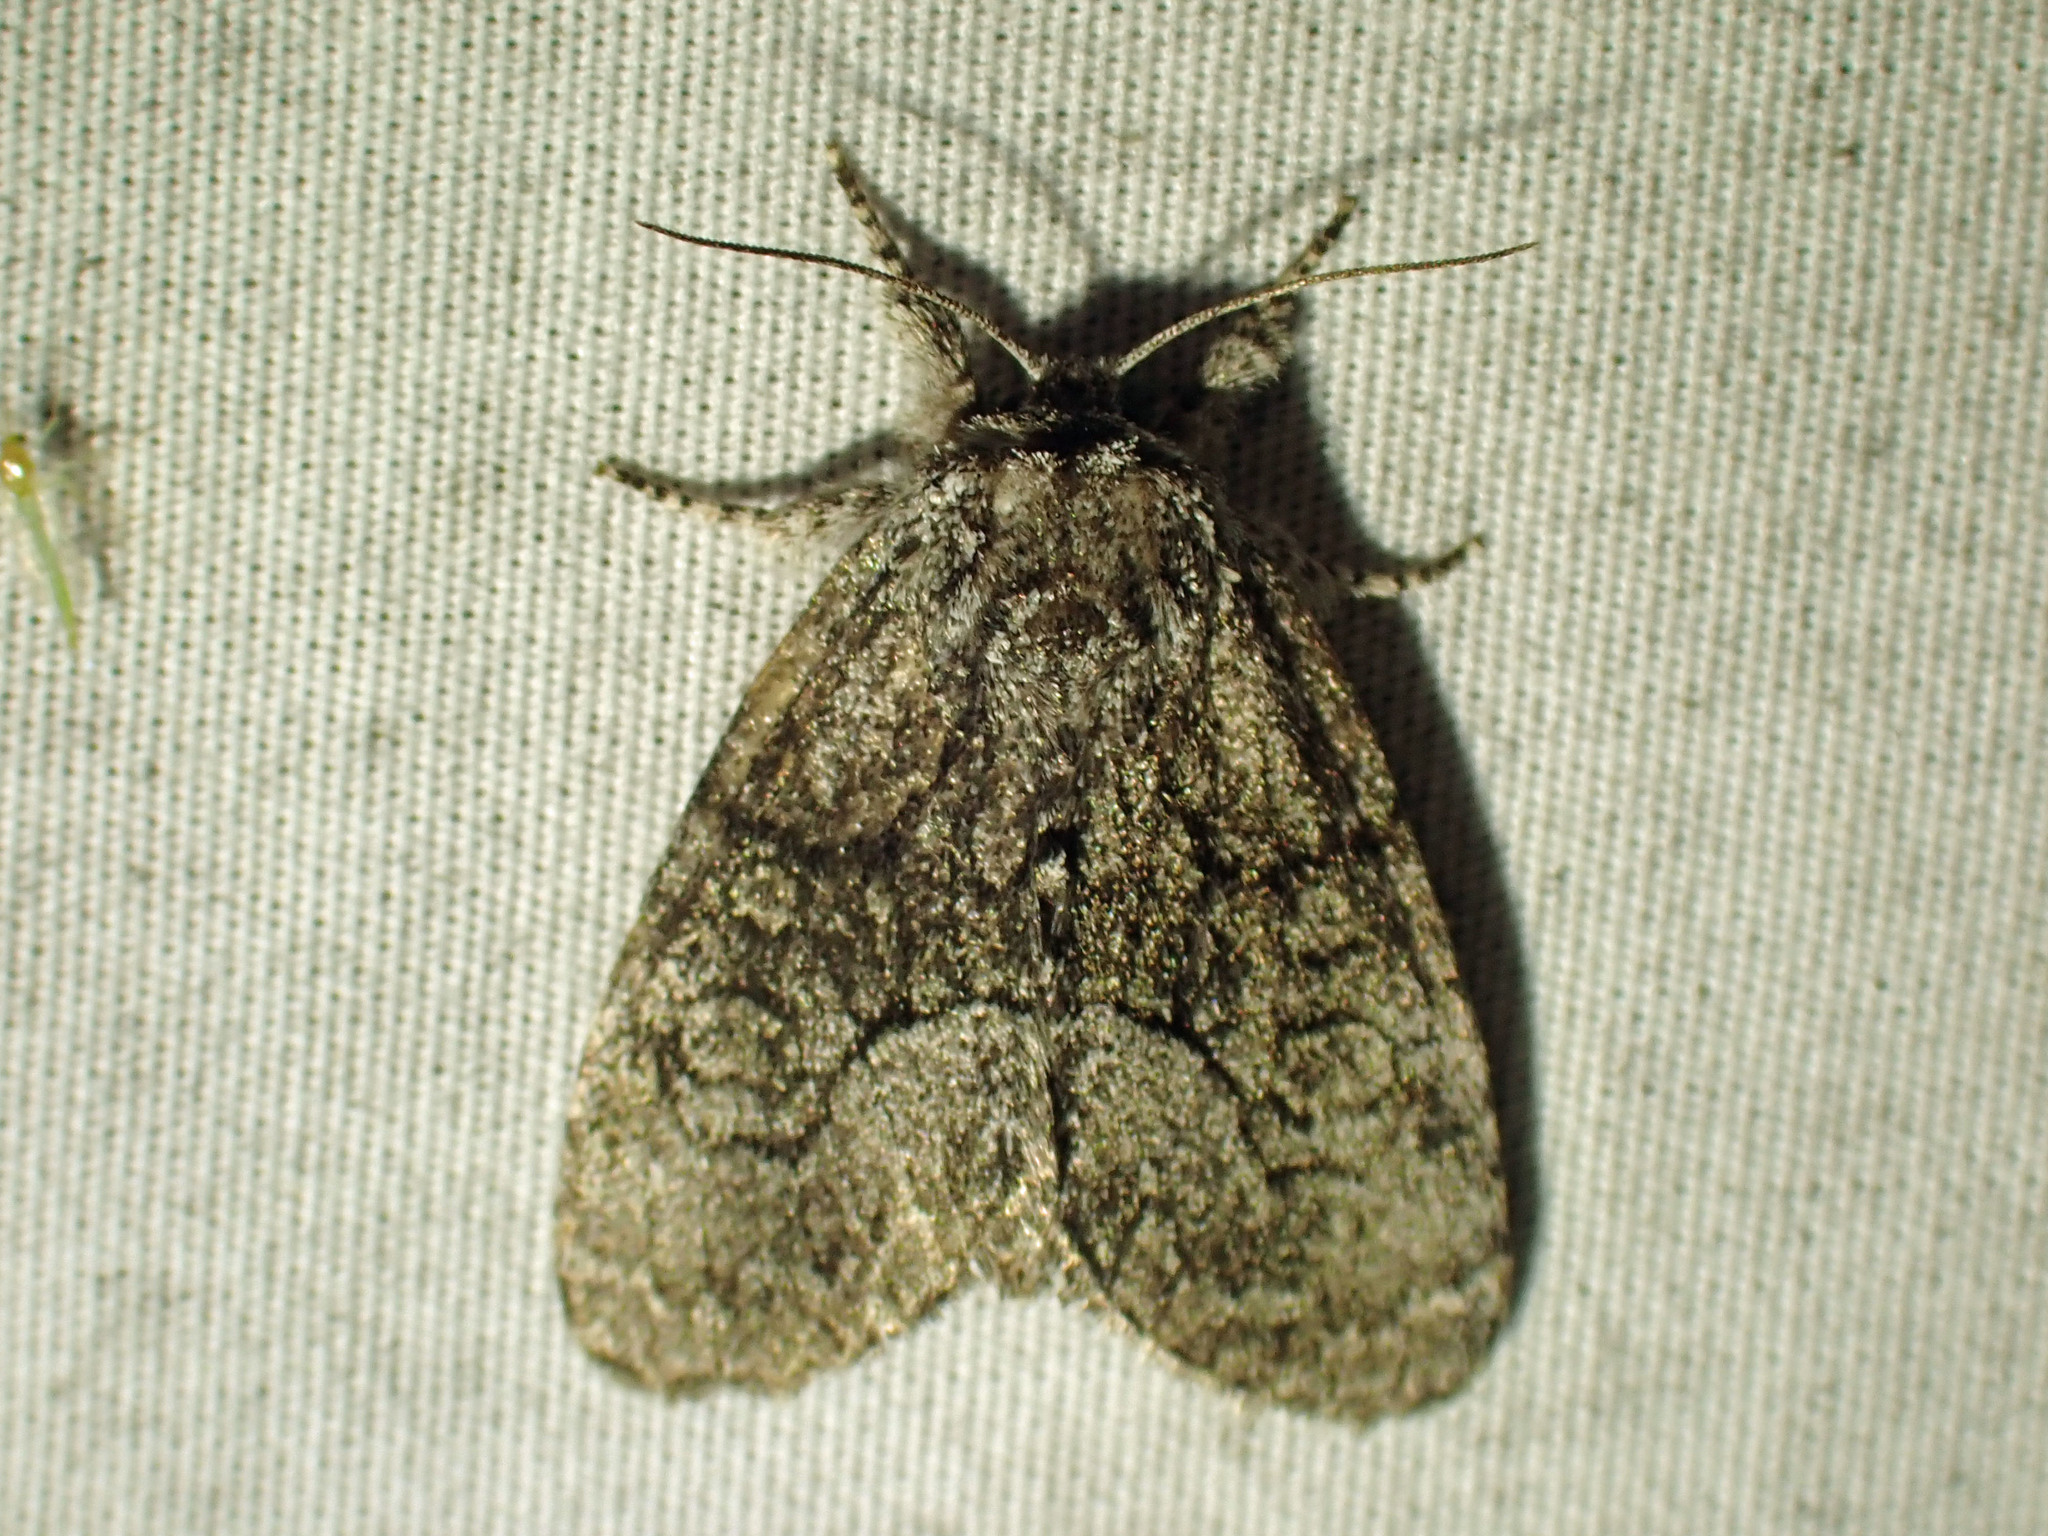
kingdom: Animalia
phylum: Arthropoda
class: Insecta
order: Lepidoptera
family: Noctuidae
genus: Raphia
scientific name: Raphia frater
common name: Brother
